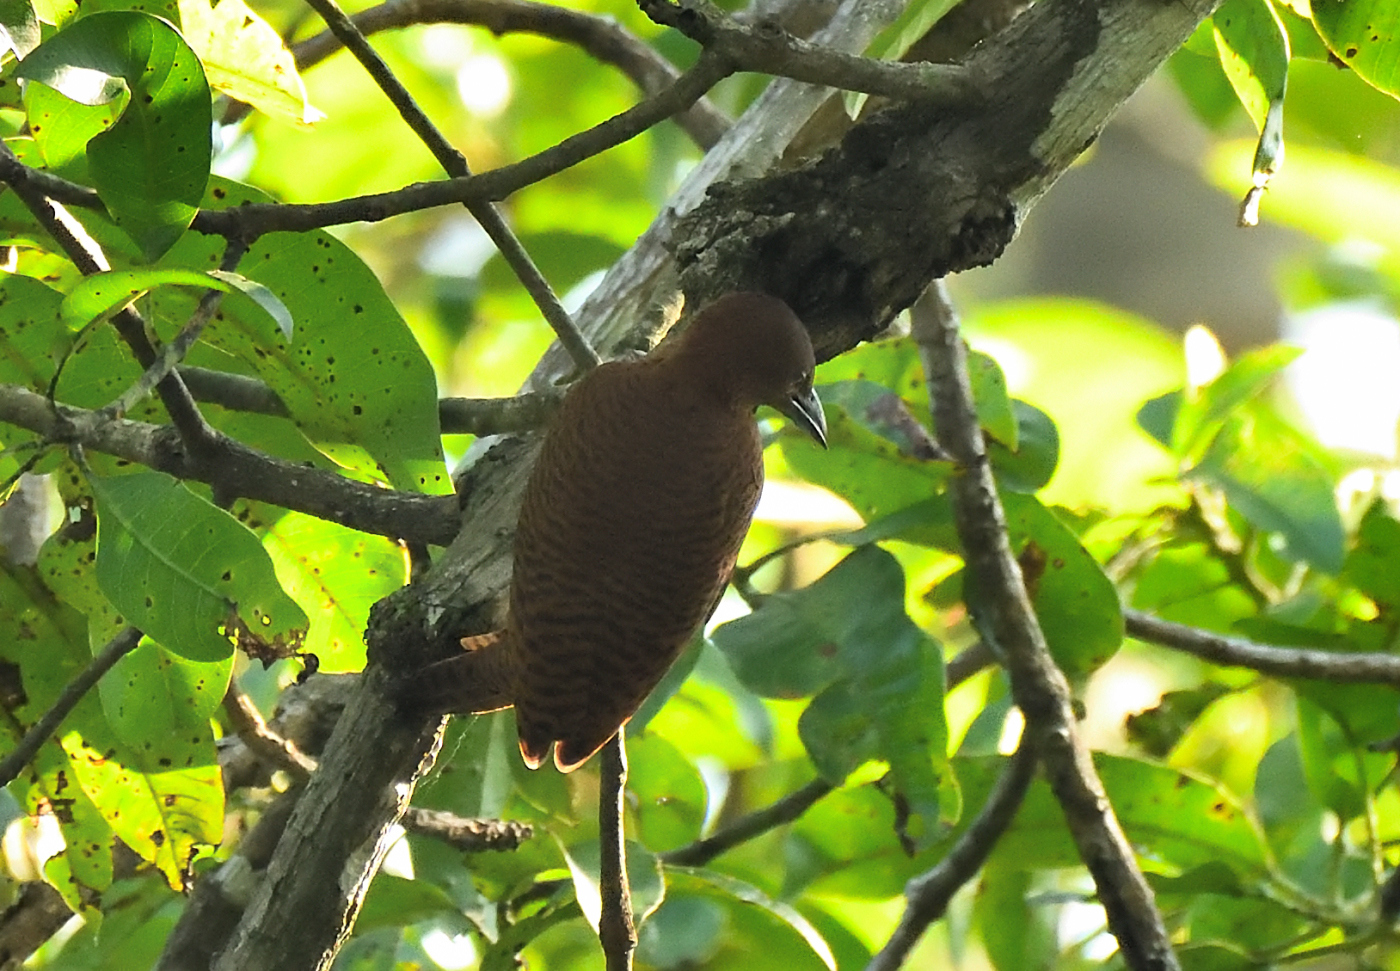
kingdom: Animalia
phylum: Chordata
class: Aves
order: Piciformes
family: Picidae
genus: Micropternus
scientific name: Micropternus brachyurus
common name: Rufous woodpecker
